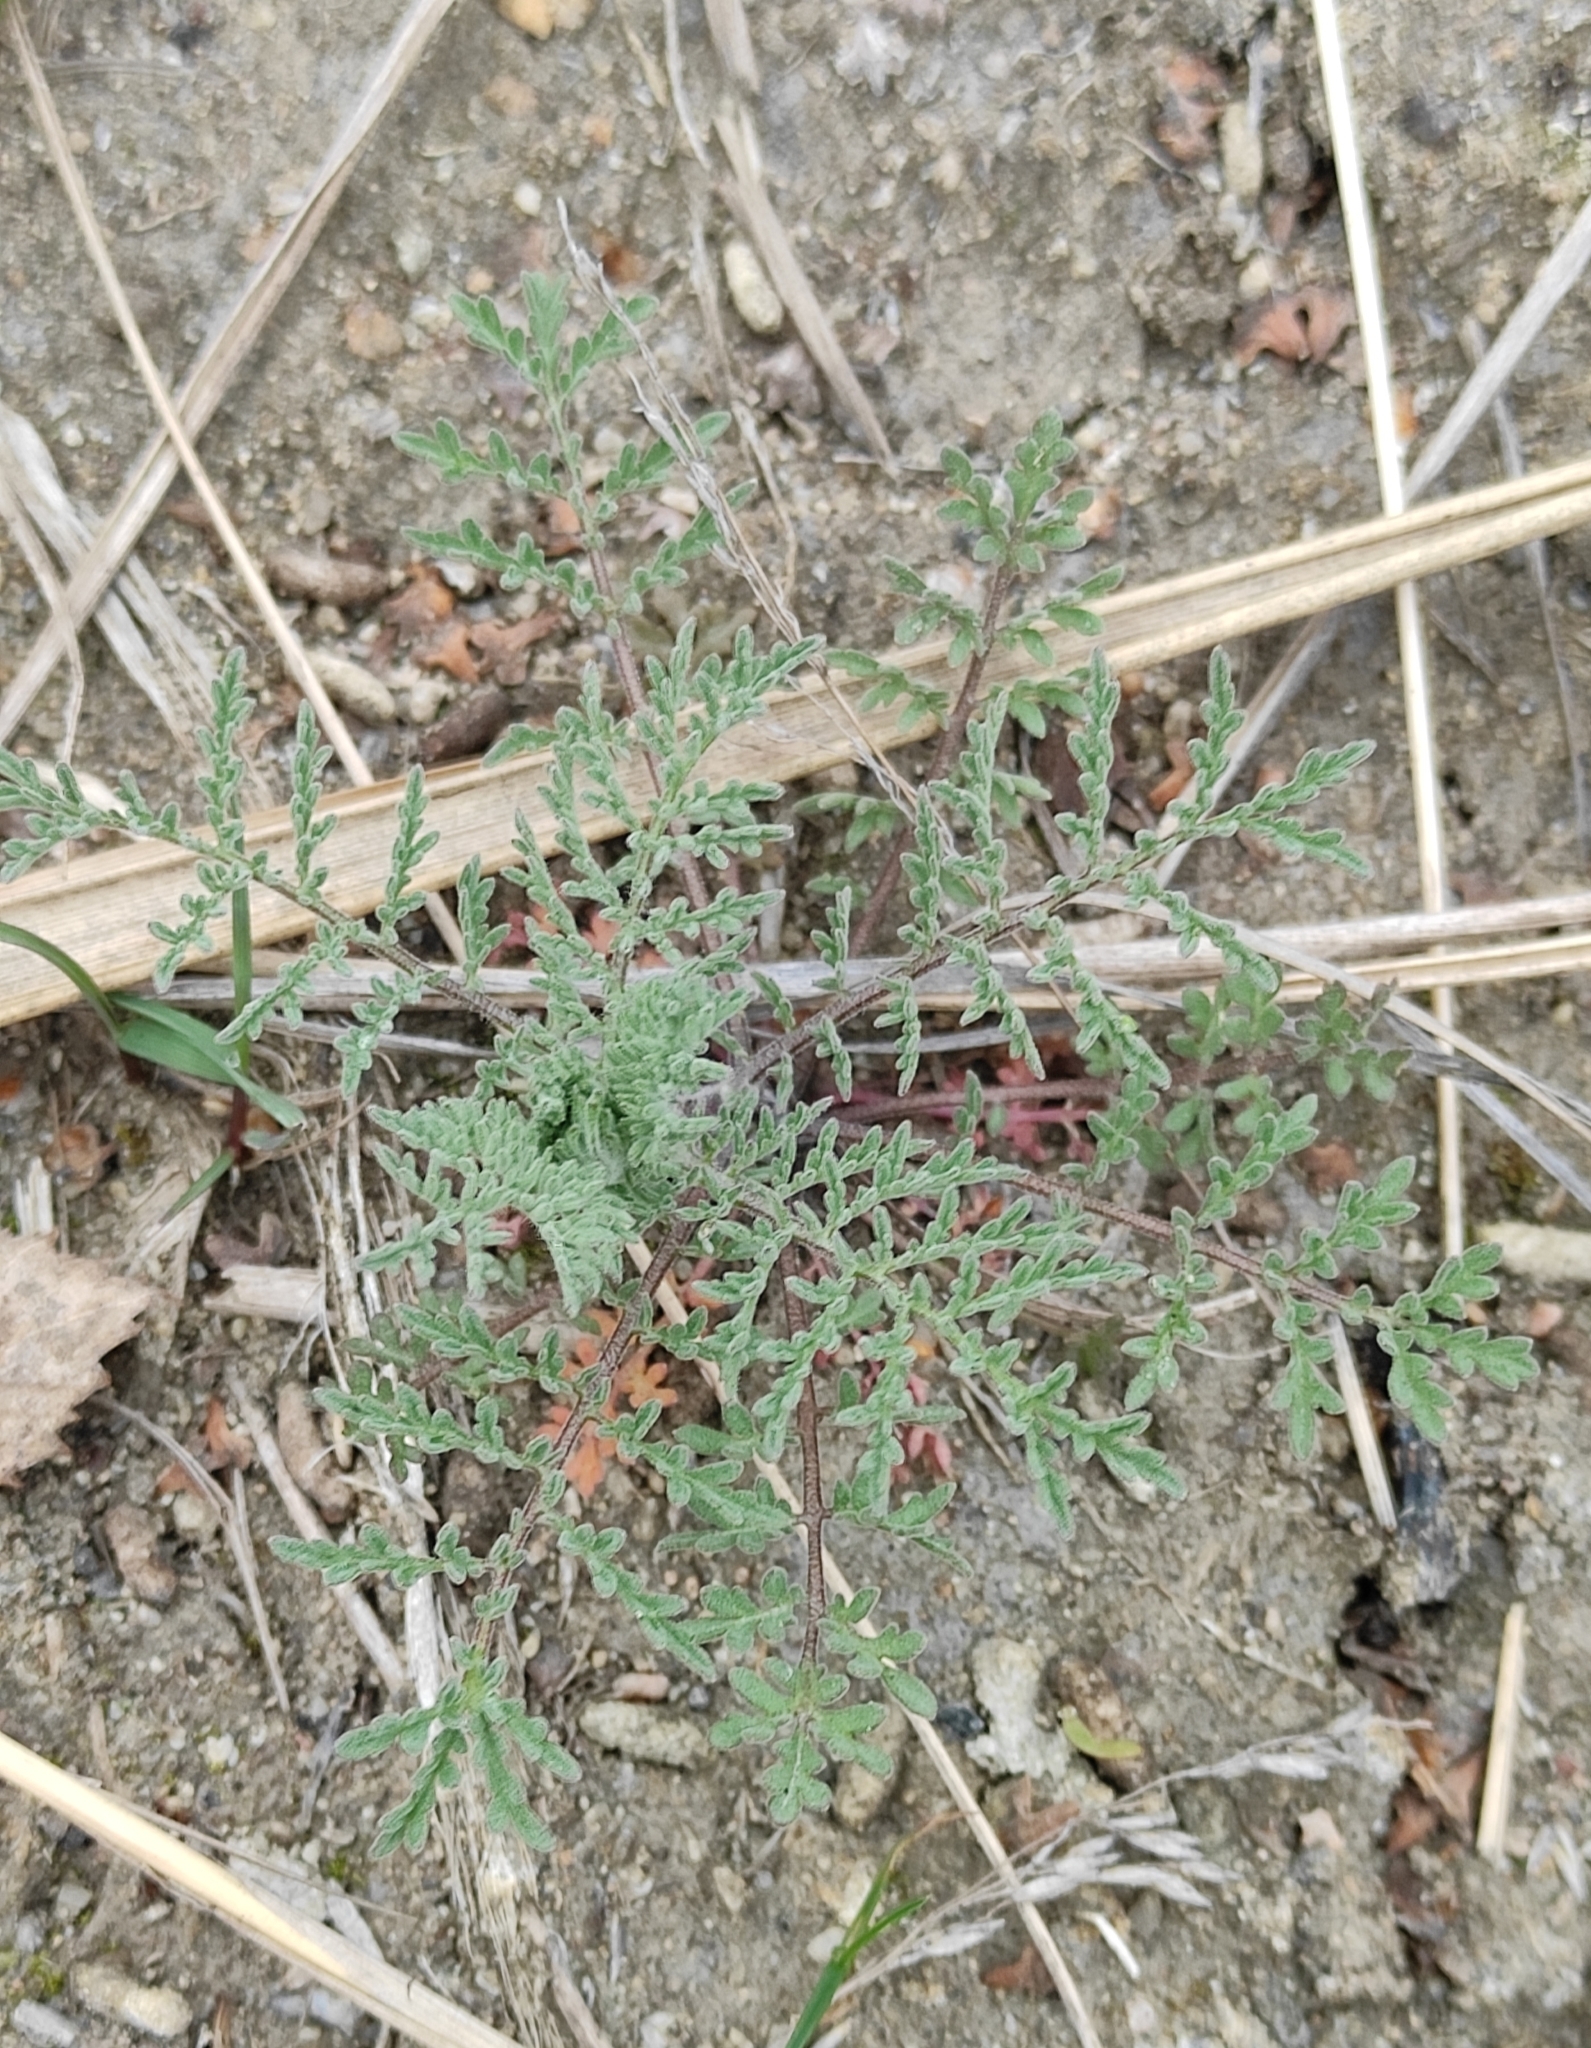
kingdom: Plantae
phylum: Tracheophyta
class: Magnoliopsida
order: Brassicales
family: Brassicaceae
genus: Descurainia
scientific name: Descurainia sophia
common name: Flixweed
